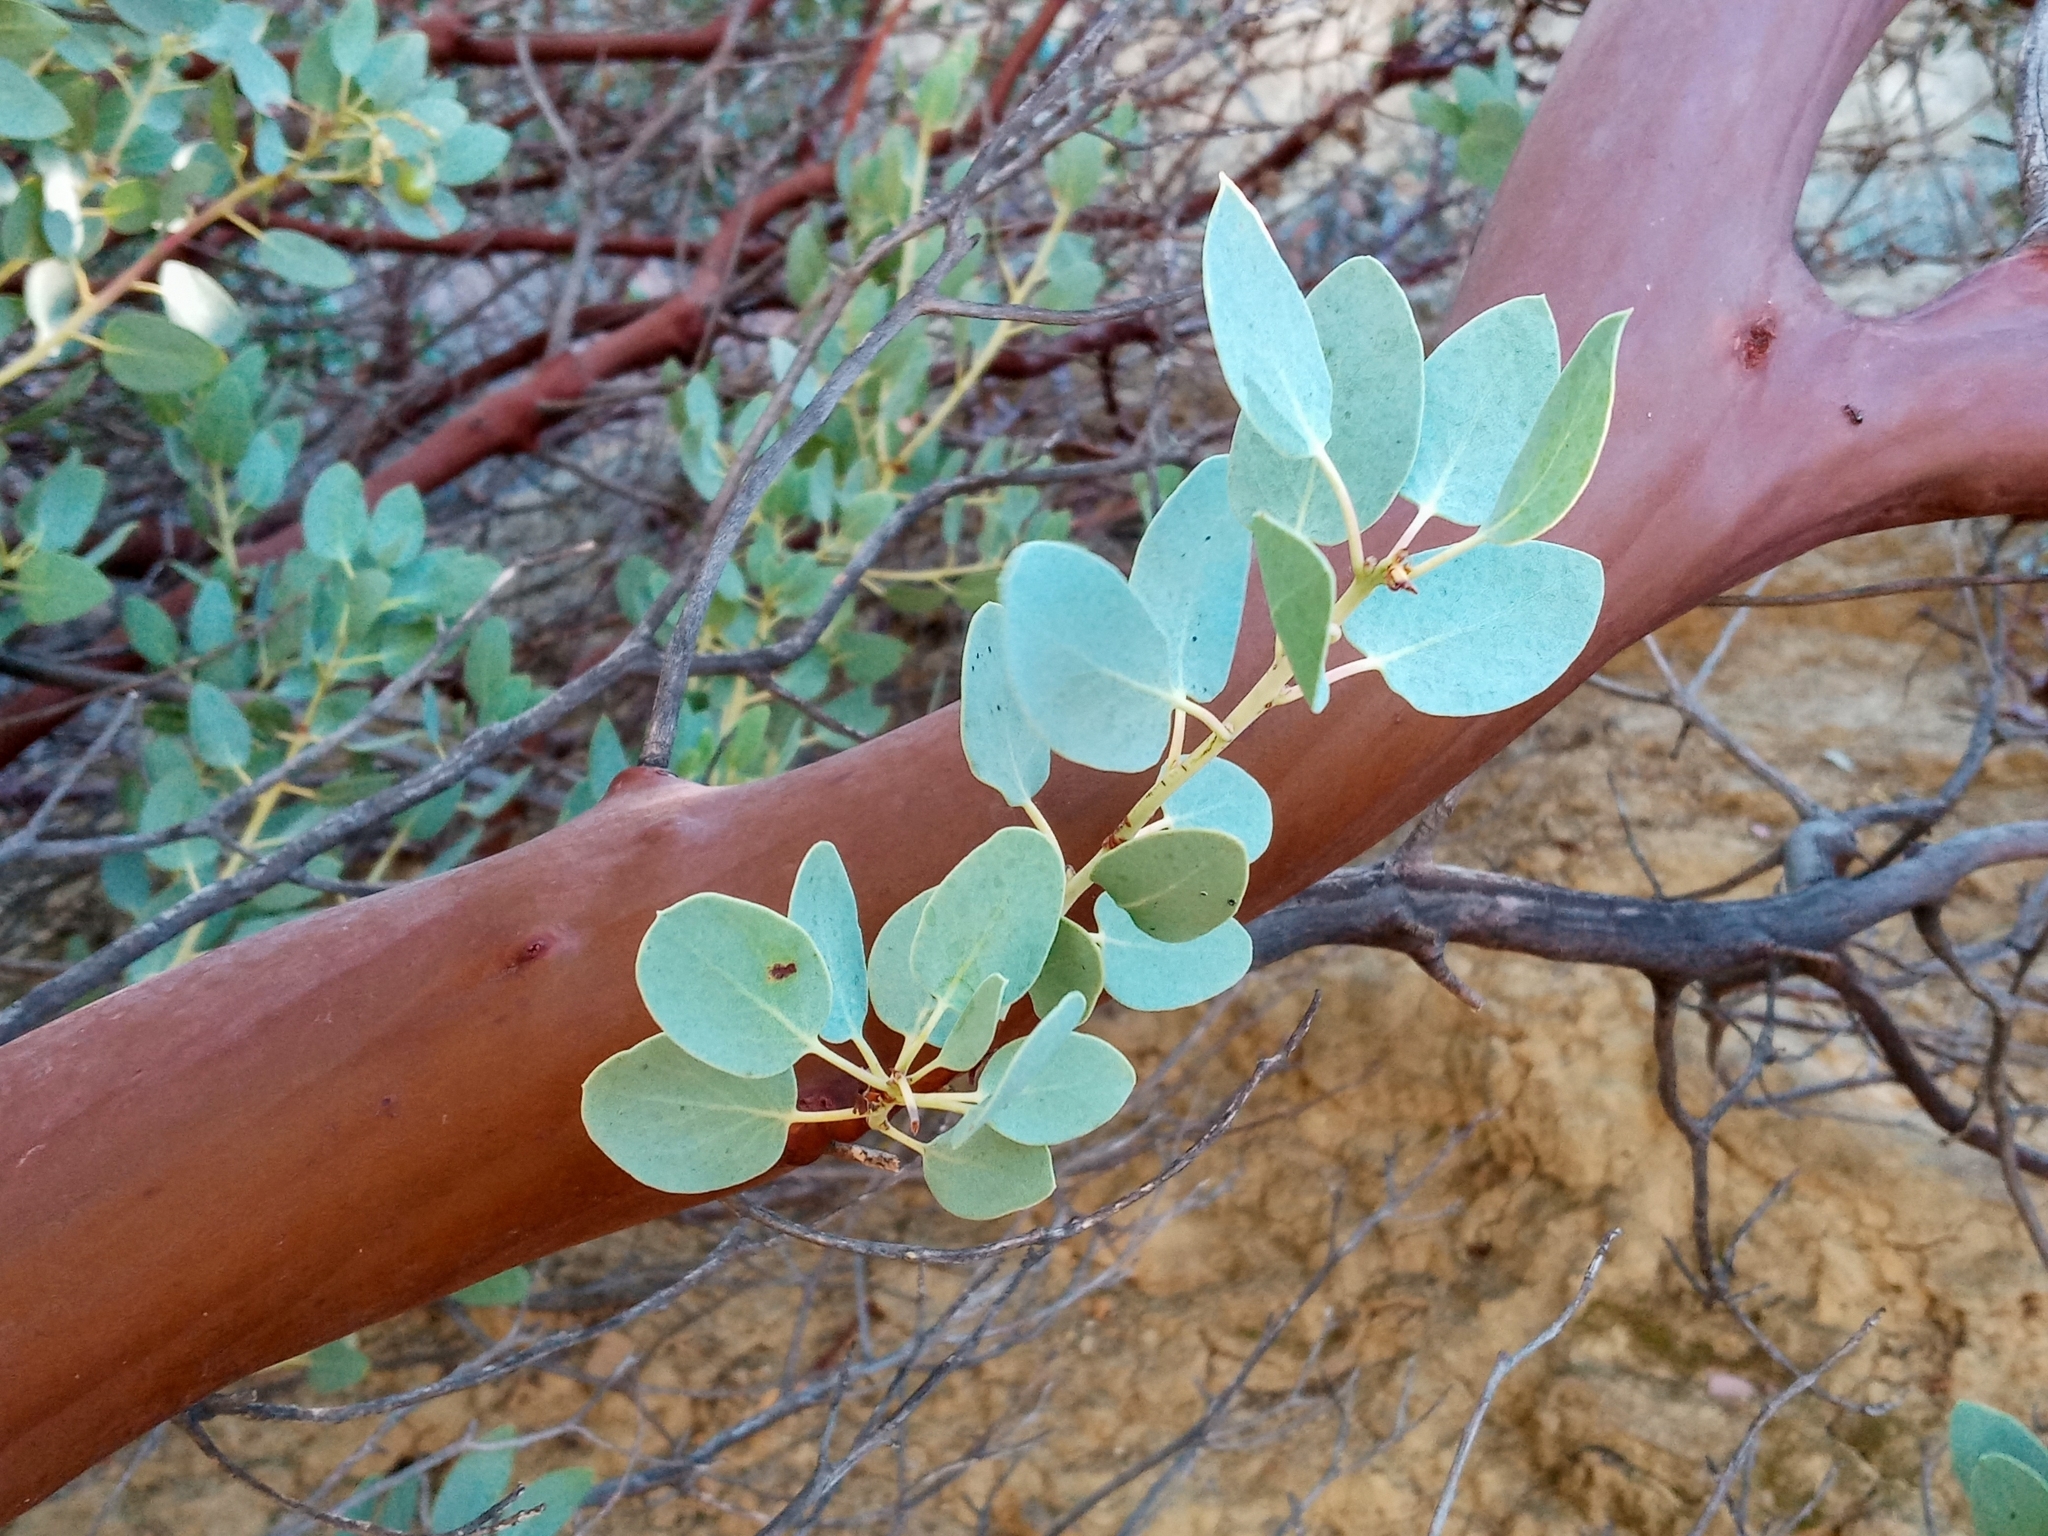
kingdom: Plantae
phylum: Tracheophyta
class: Magnoliopsida
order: Ericales
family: Ericaceae
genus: Arctostaphylos
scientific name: Arctostaphylos glauca
